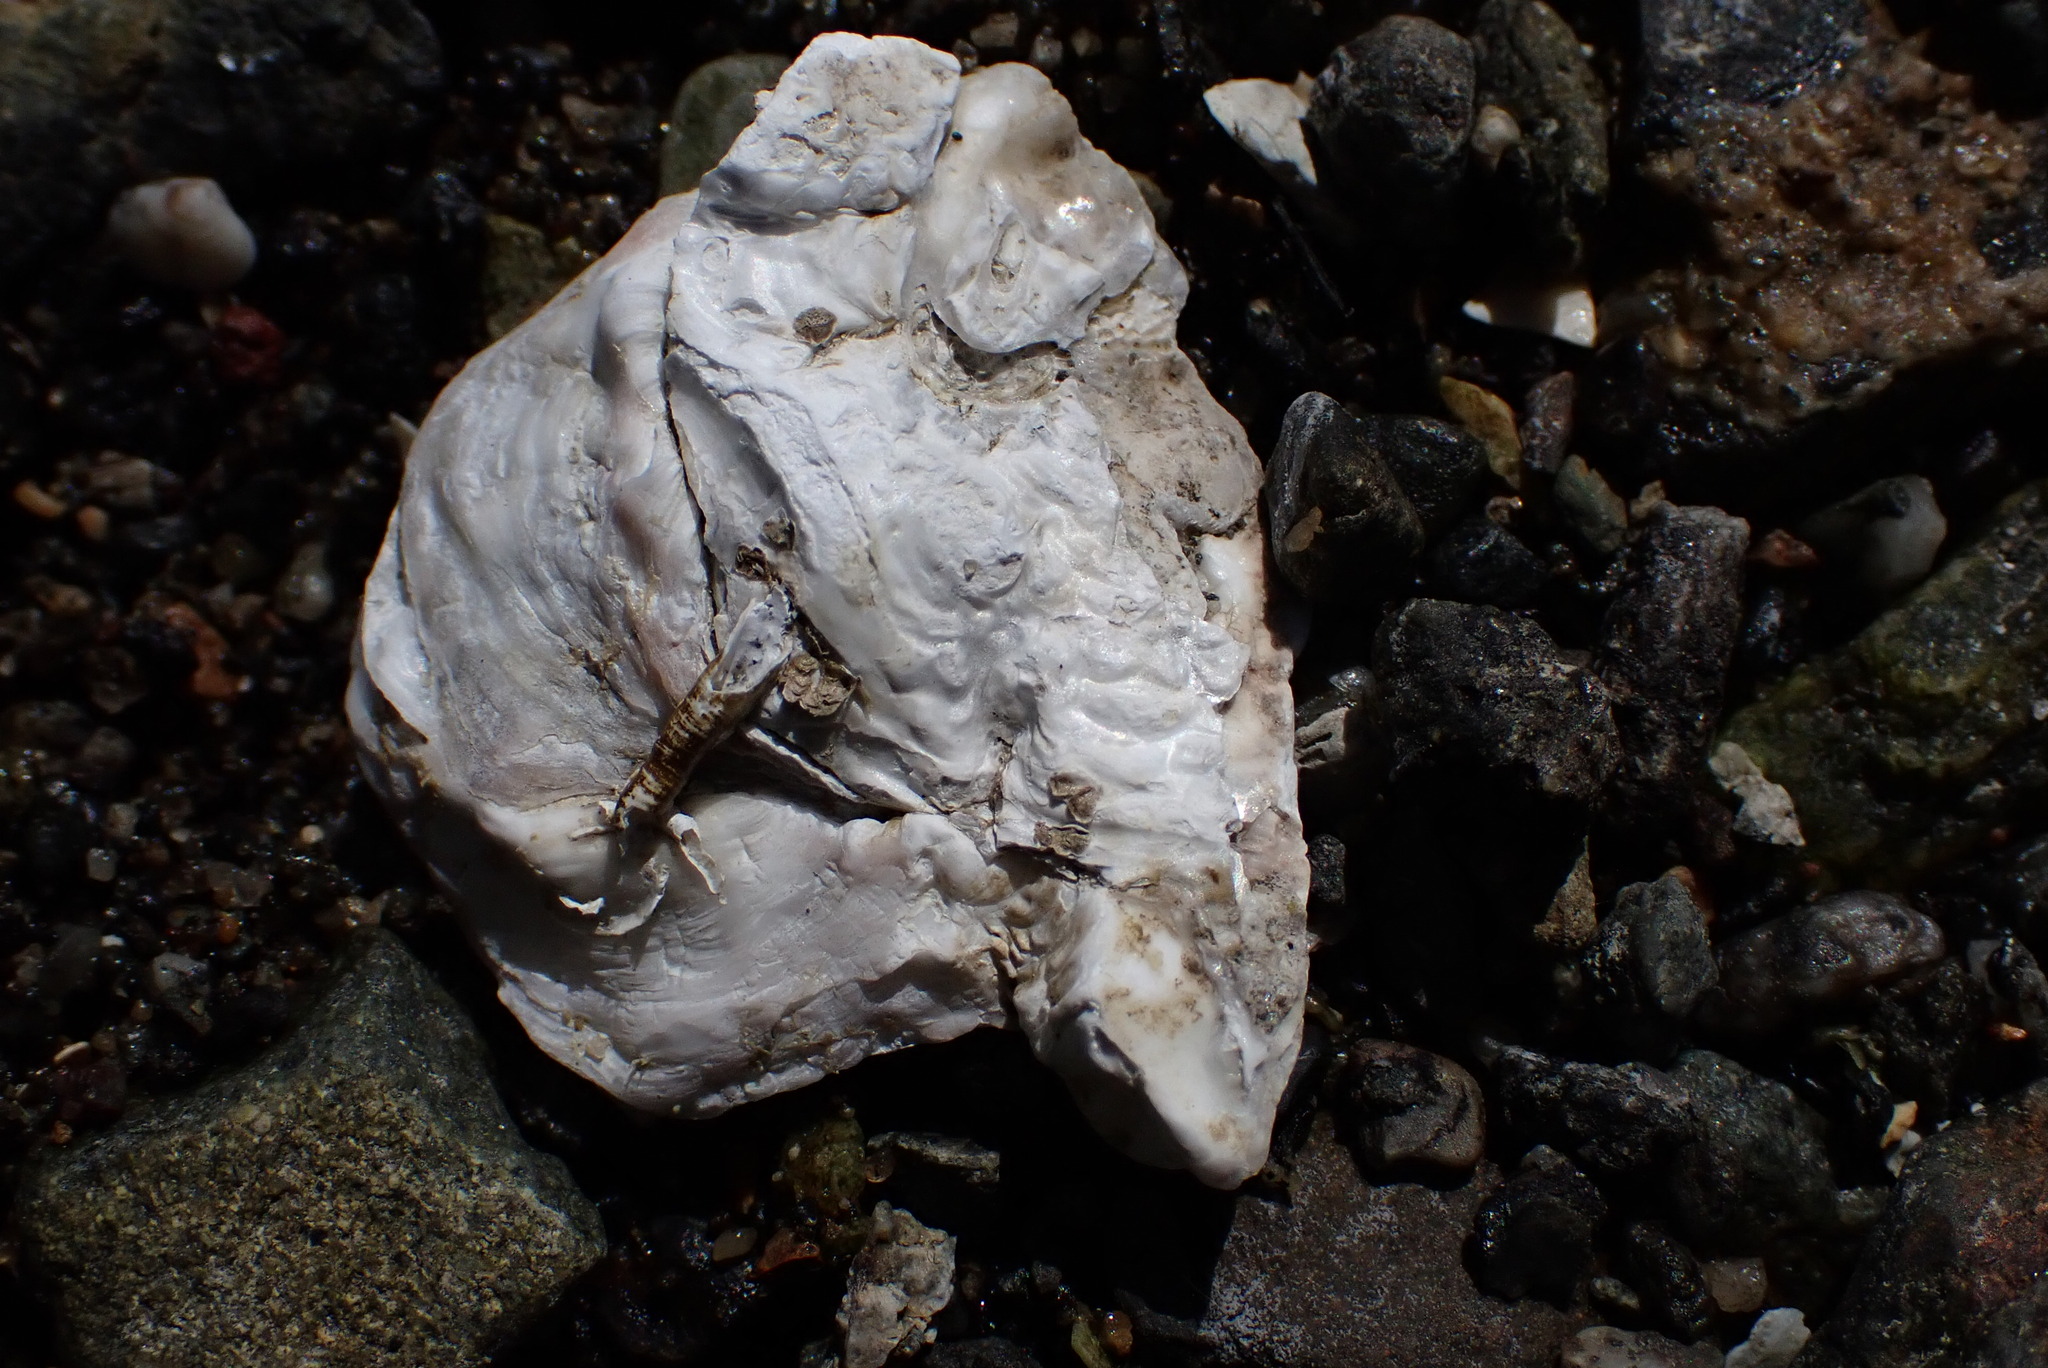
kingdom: Animalia
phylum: Mollusca
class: Bivalvia
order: Ostreida
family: Ostreidae
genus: Ostrea
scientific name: Ostrea lurida
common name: Olympia flat oyster
